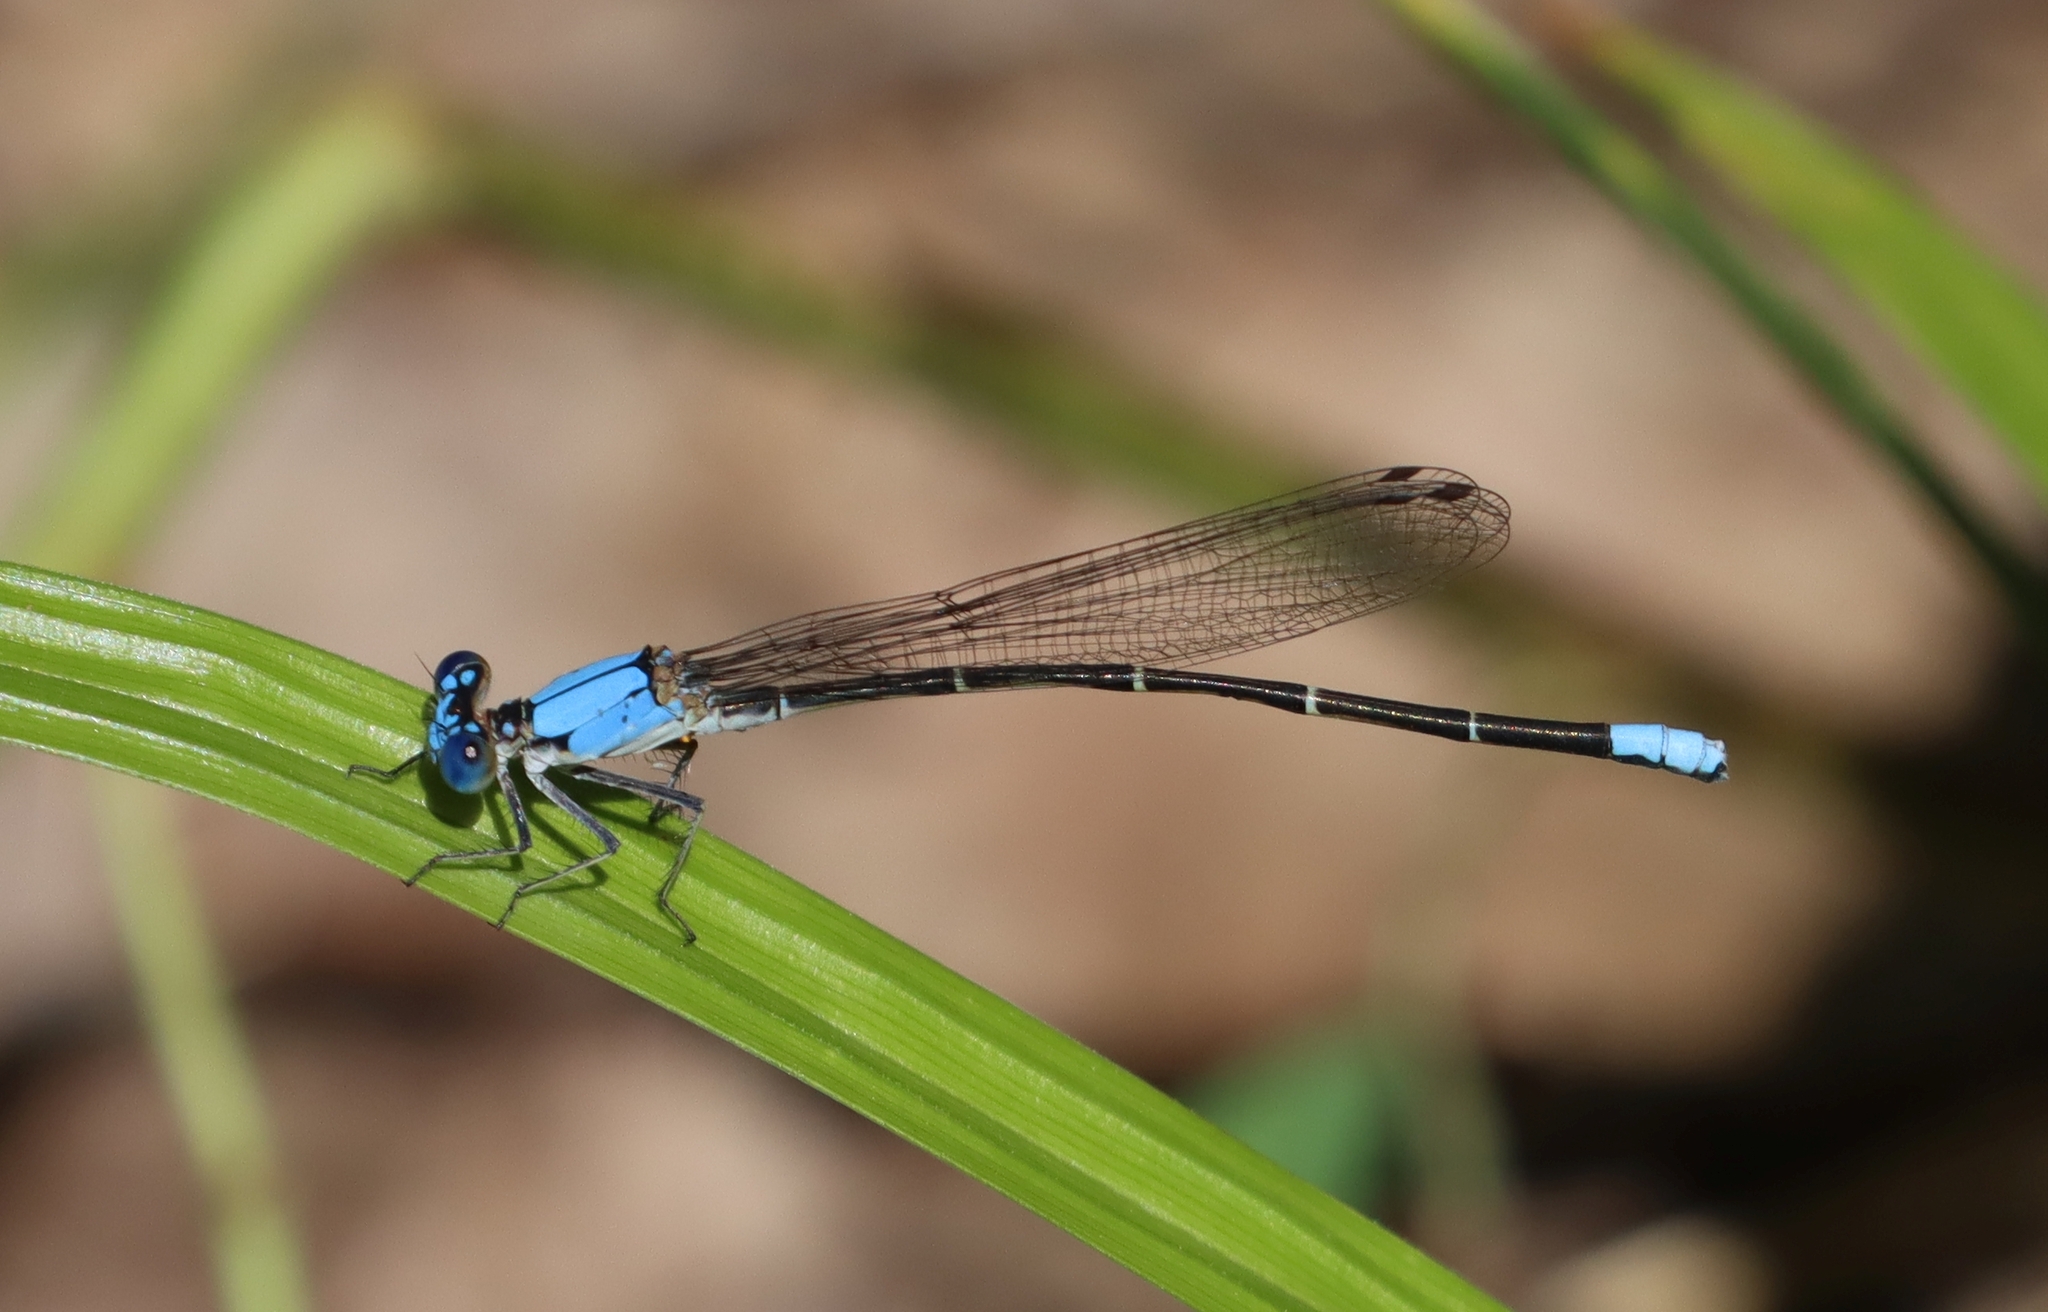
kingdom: Animalia
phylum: Arthropoda
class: Insecta
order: Odonata
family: Coenagrionidae
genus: Argia
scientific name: Argia apicalis
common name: Blue-fronted dancer
